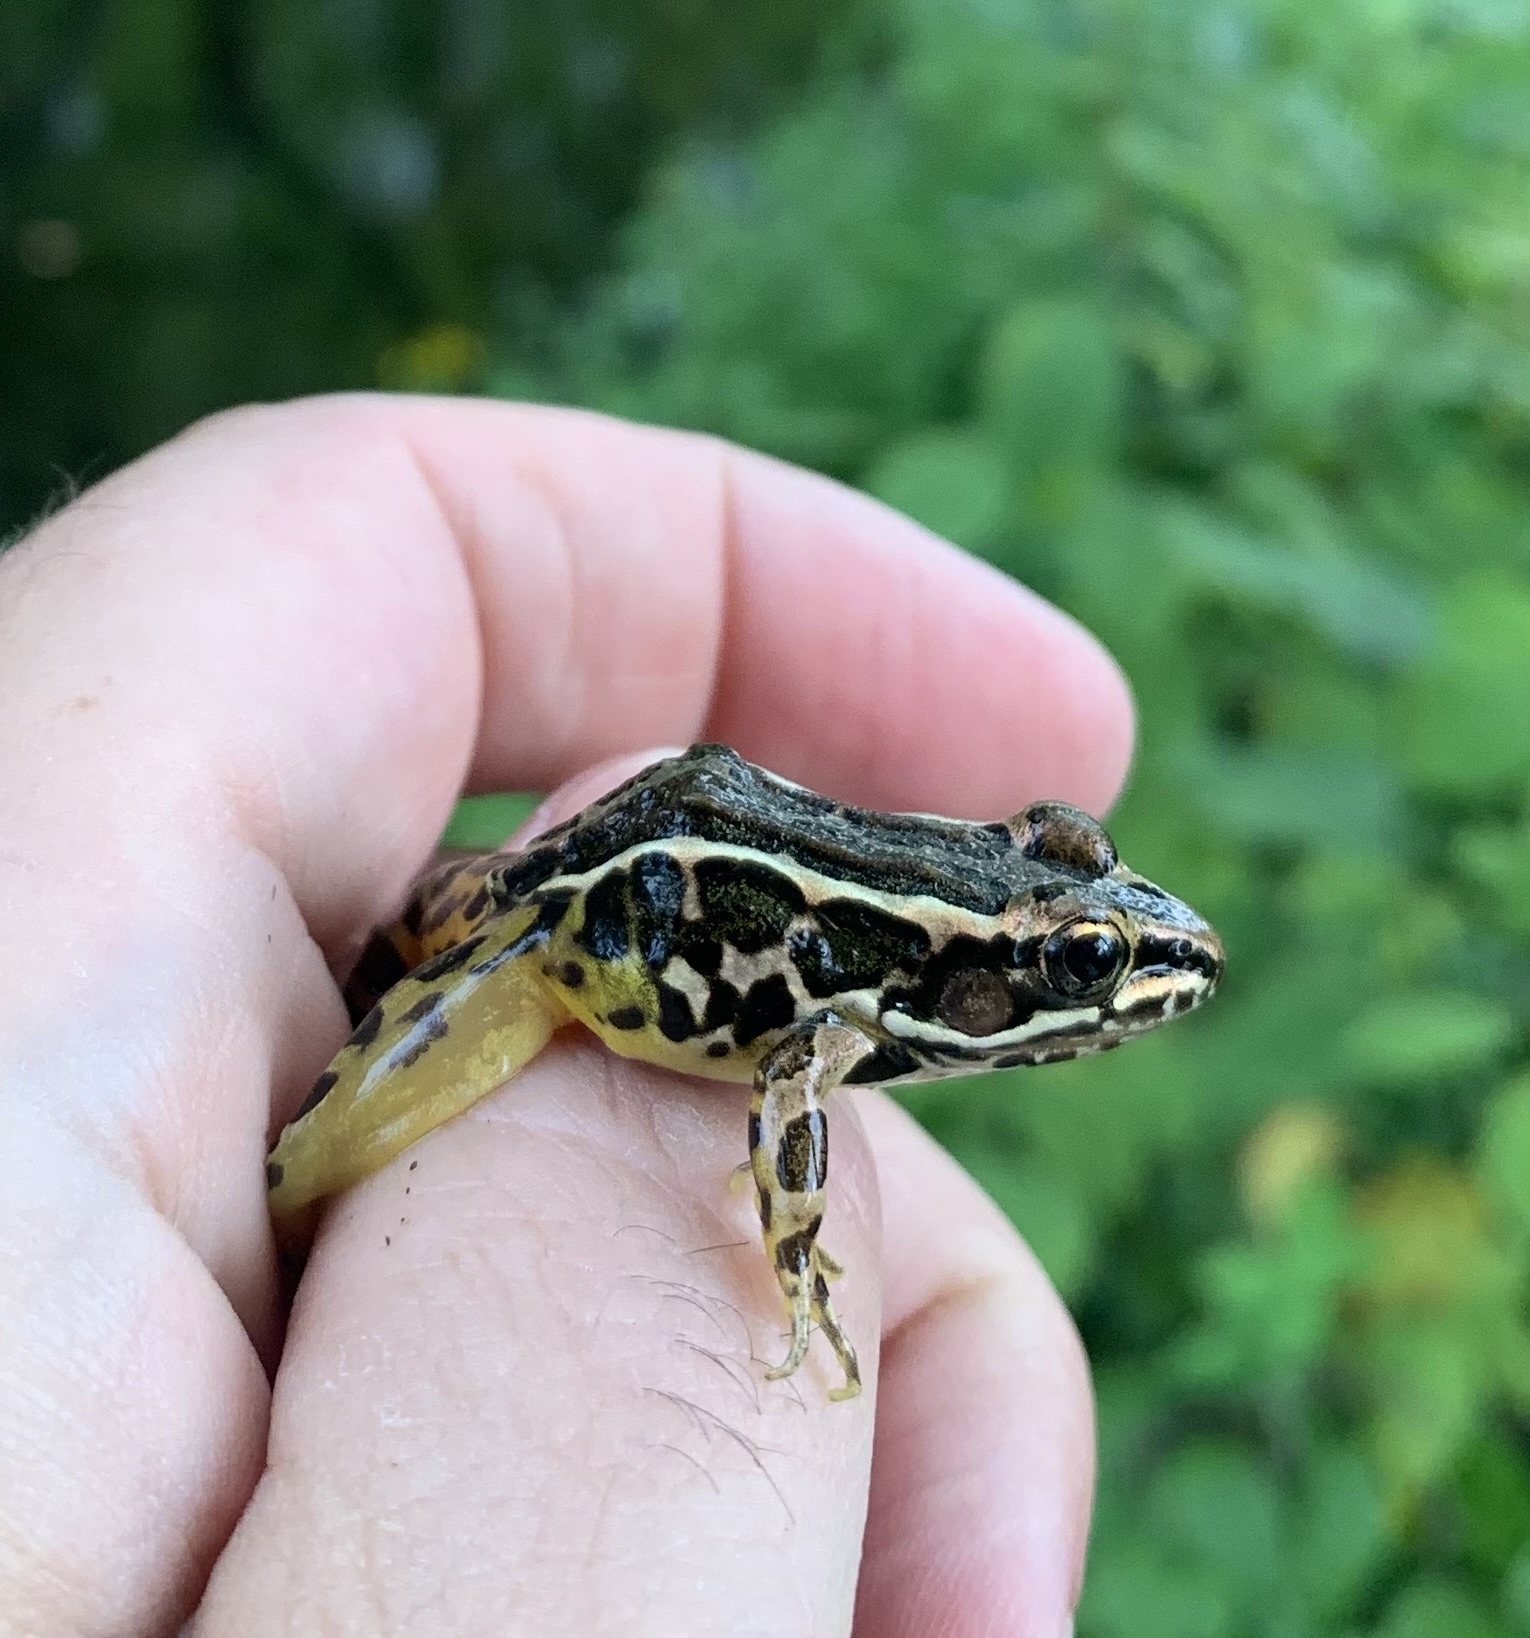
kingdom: Animalia
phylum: Chordata
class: Amphibia
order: Anura
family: Ranidae
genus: Lithobates
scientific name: Lithobates palustris
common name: Pickerel frog
